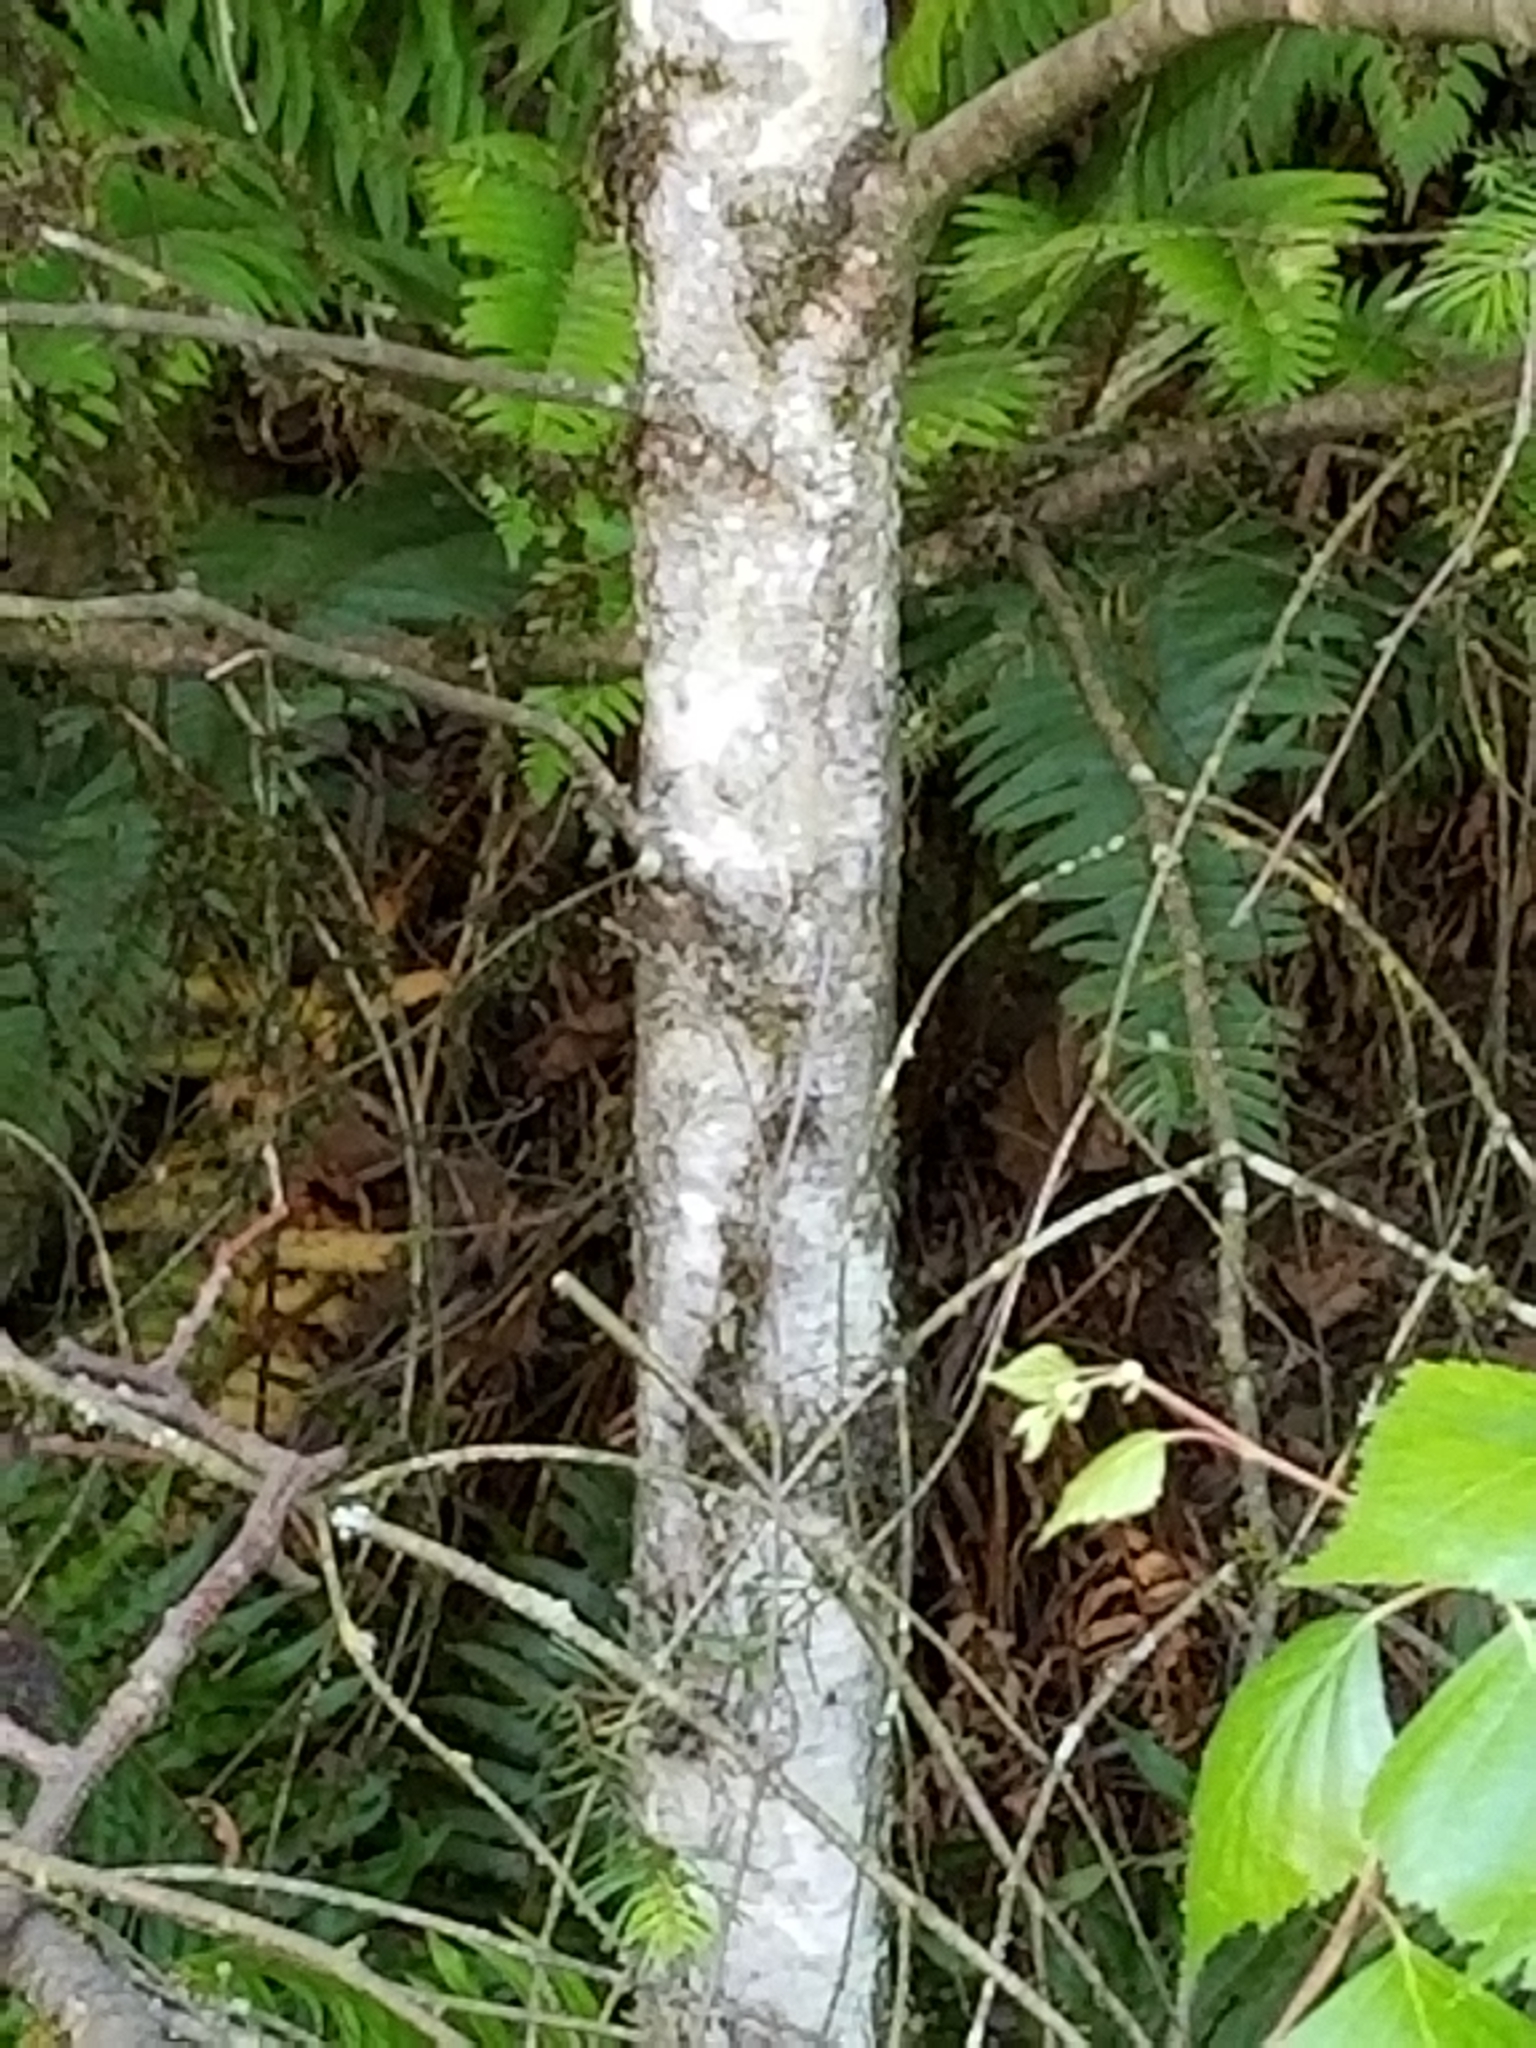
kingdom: Plantae
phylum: Tracheophyta
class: Magnoliopsida
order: Fagales
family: Betulaceae
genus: Betula
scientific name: Betula papyrifera
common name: Paper birch
